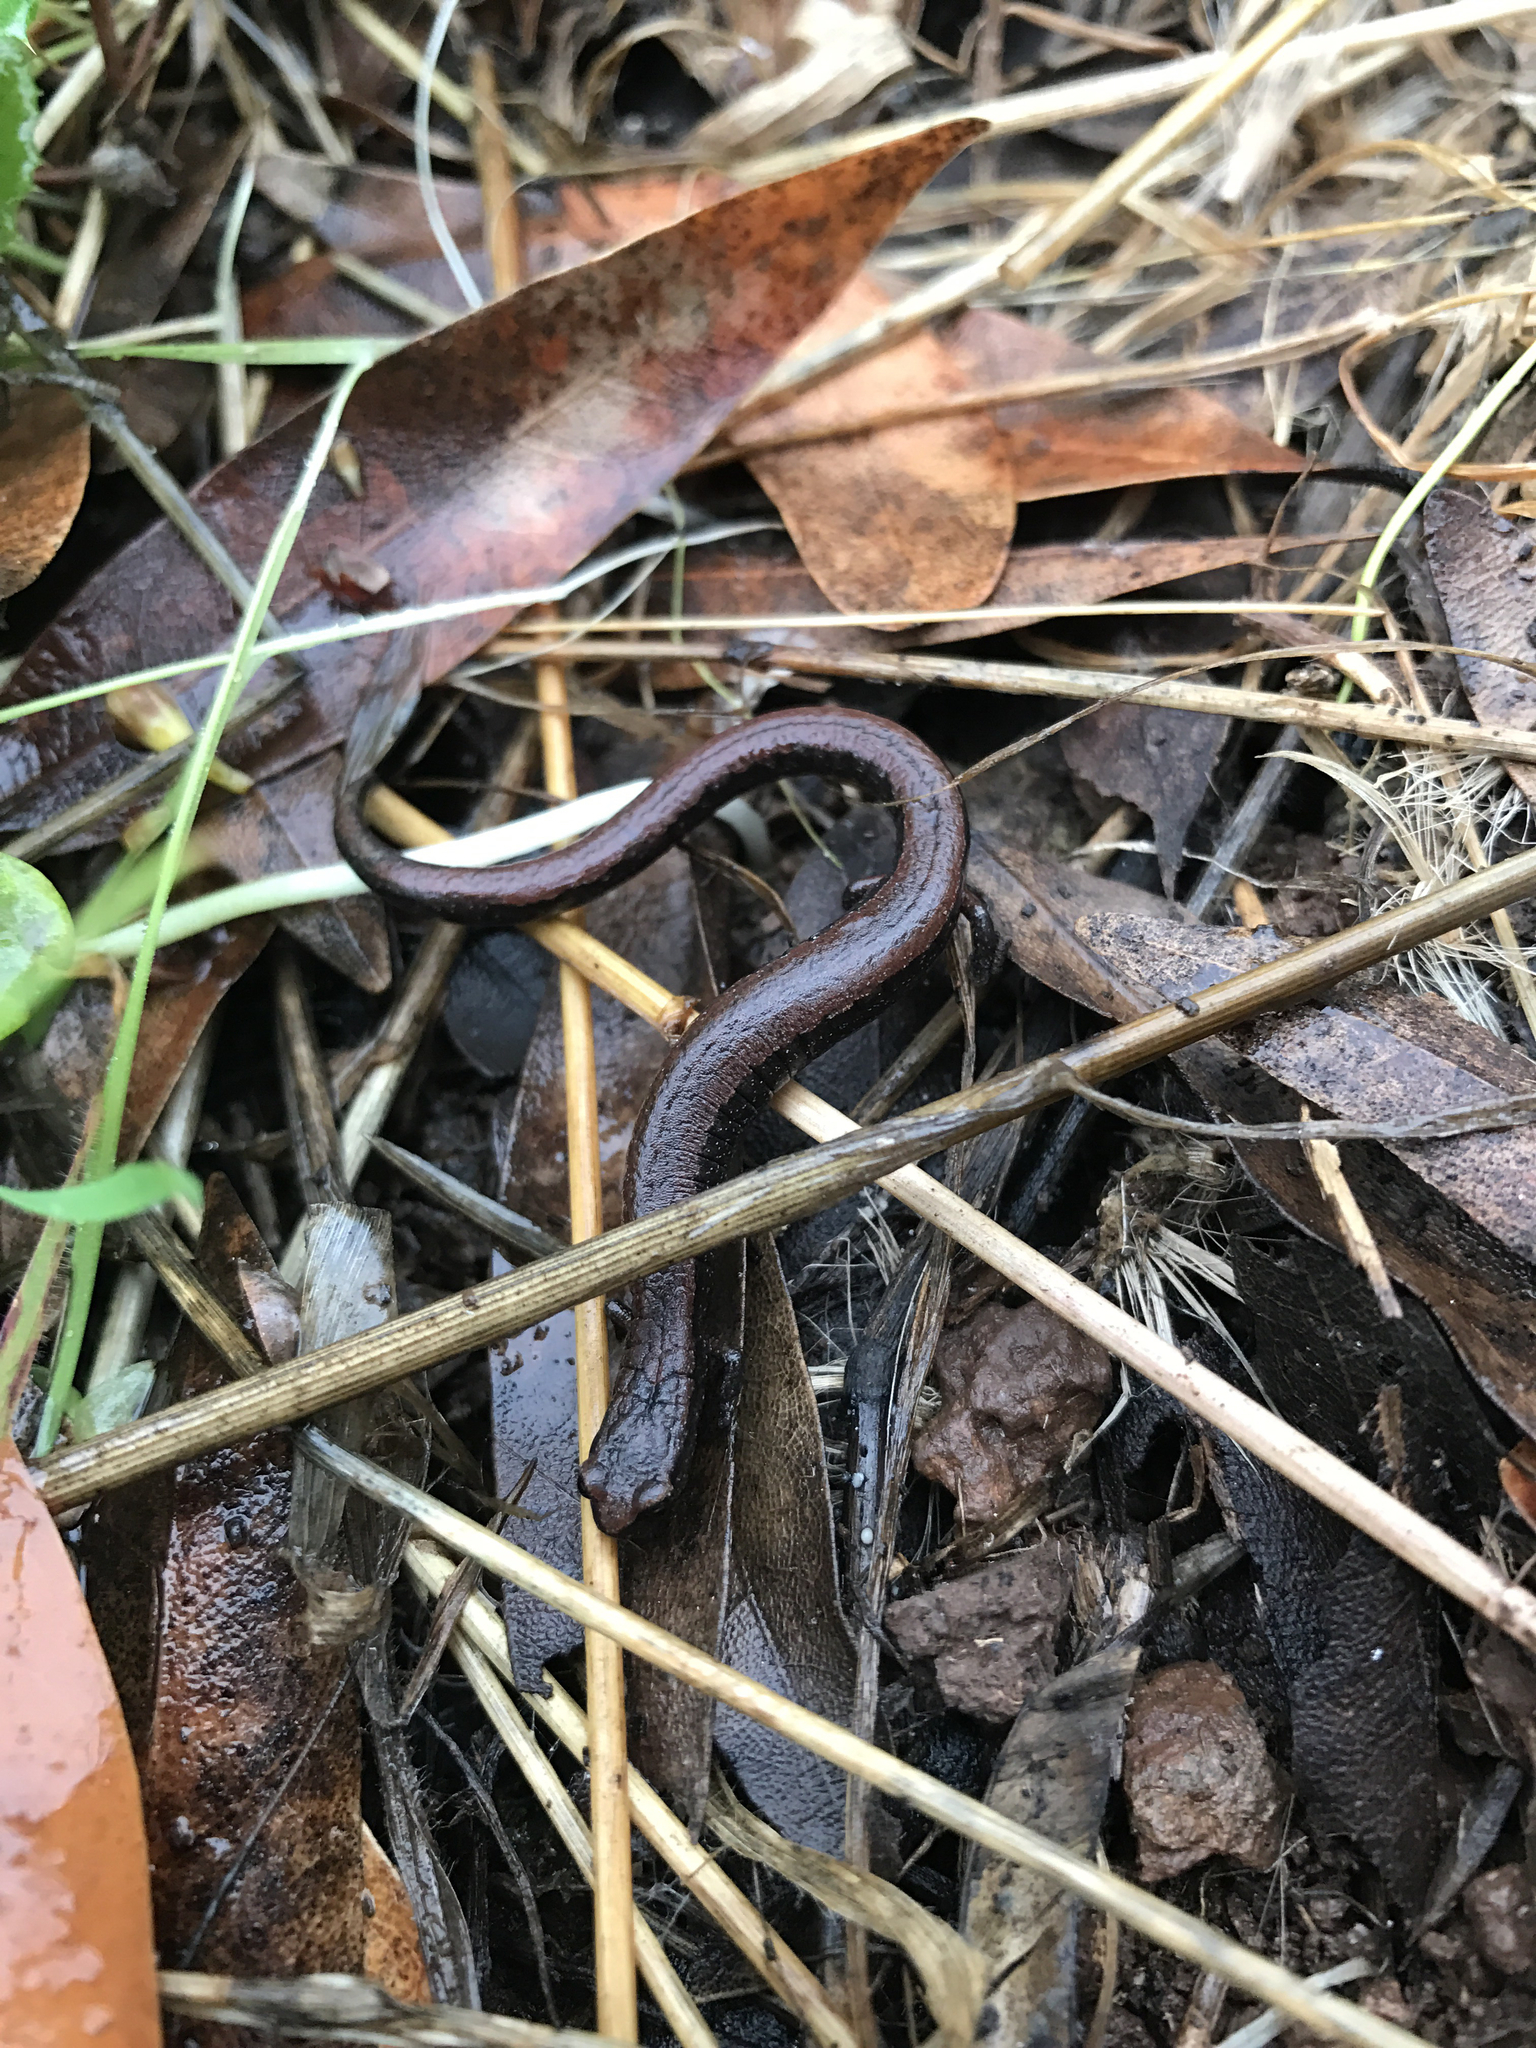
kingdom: Animalia
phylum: Chordata
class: Amphibia
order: Caudata
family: Plethodontidae
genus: Batrachoseps
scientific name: Batrachoseps attenuatus
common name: California slender salamander
